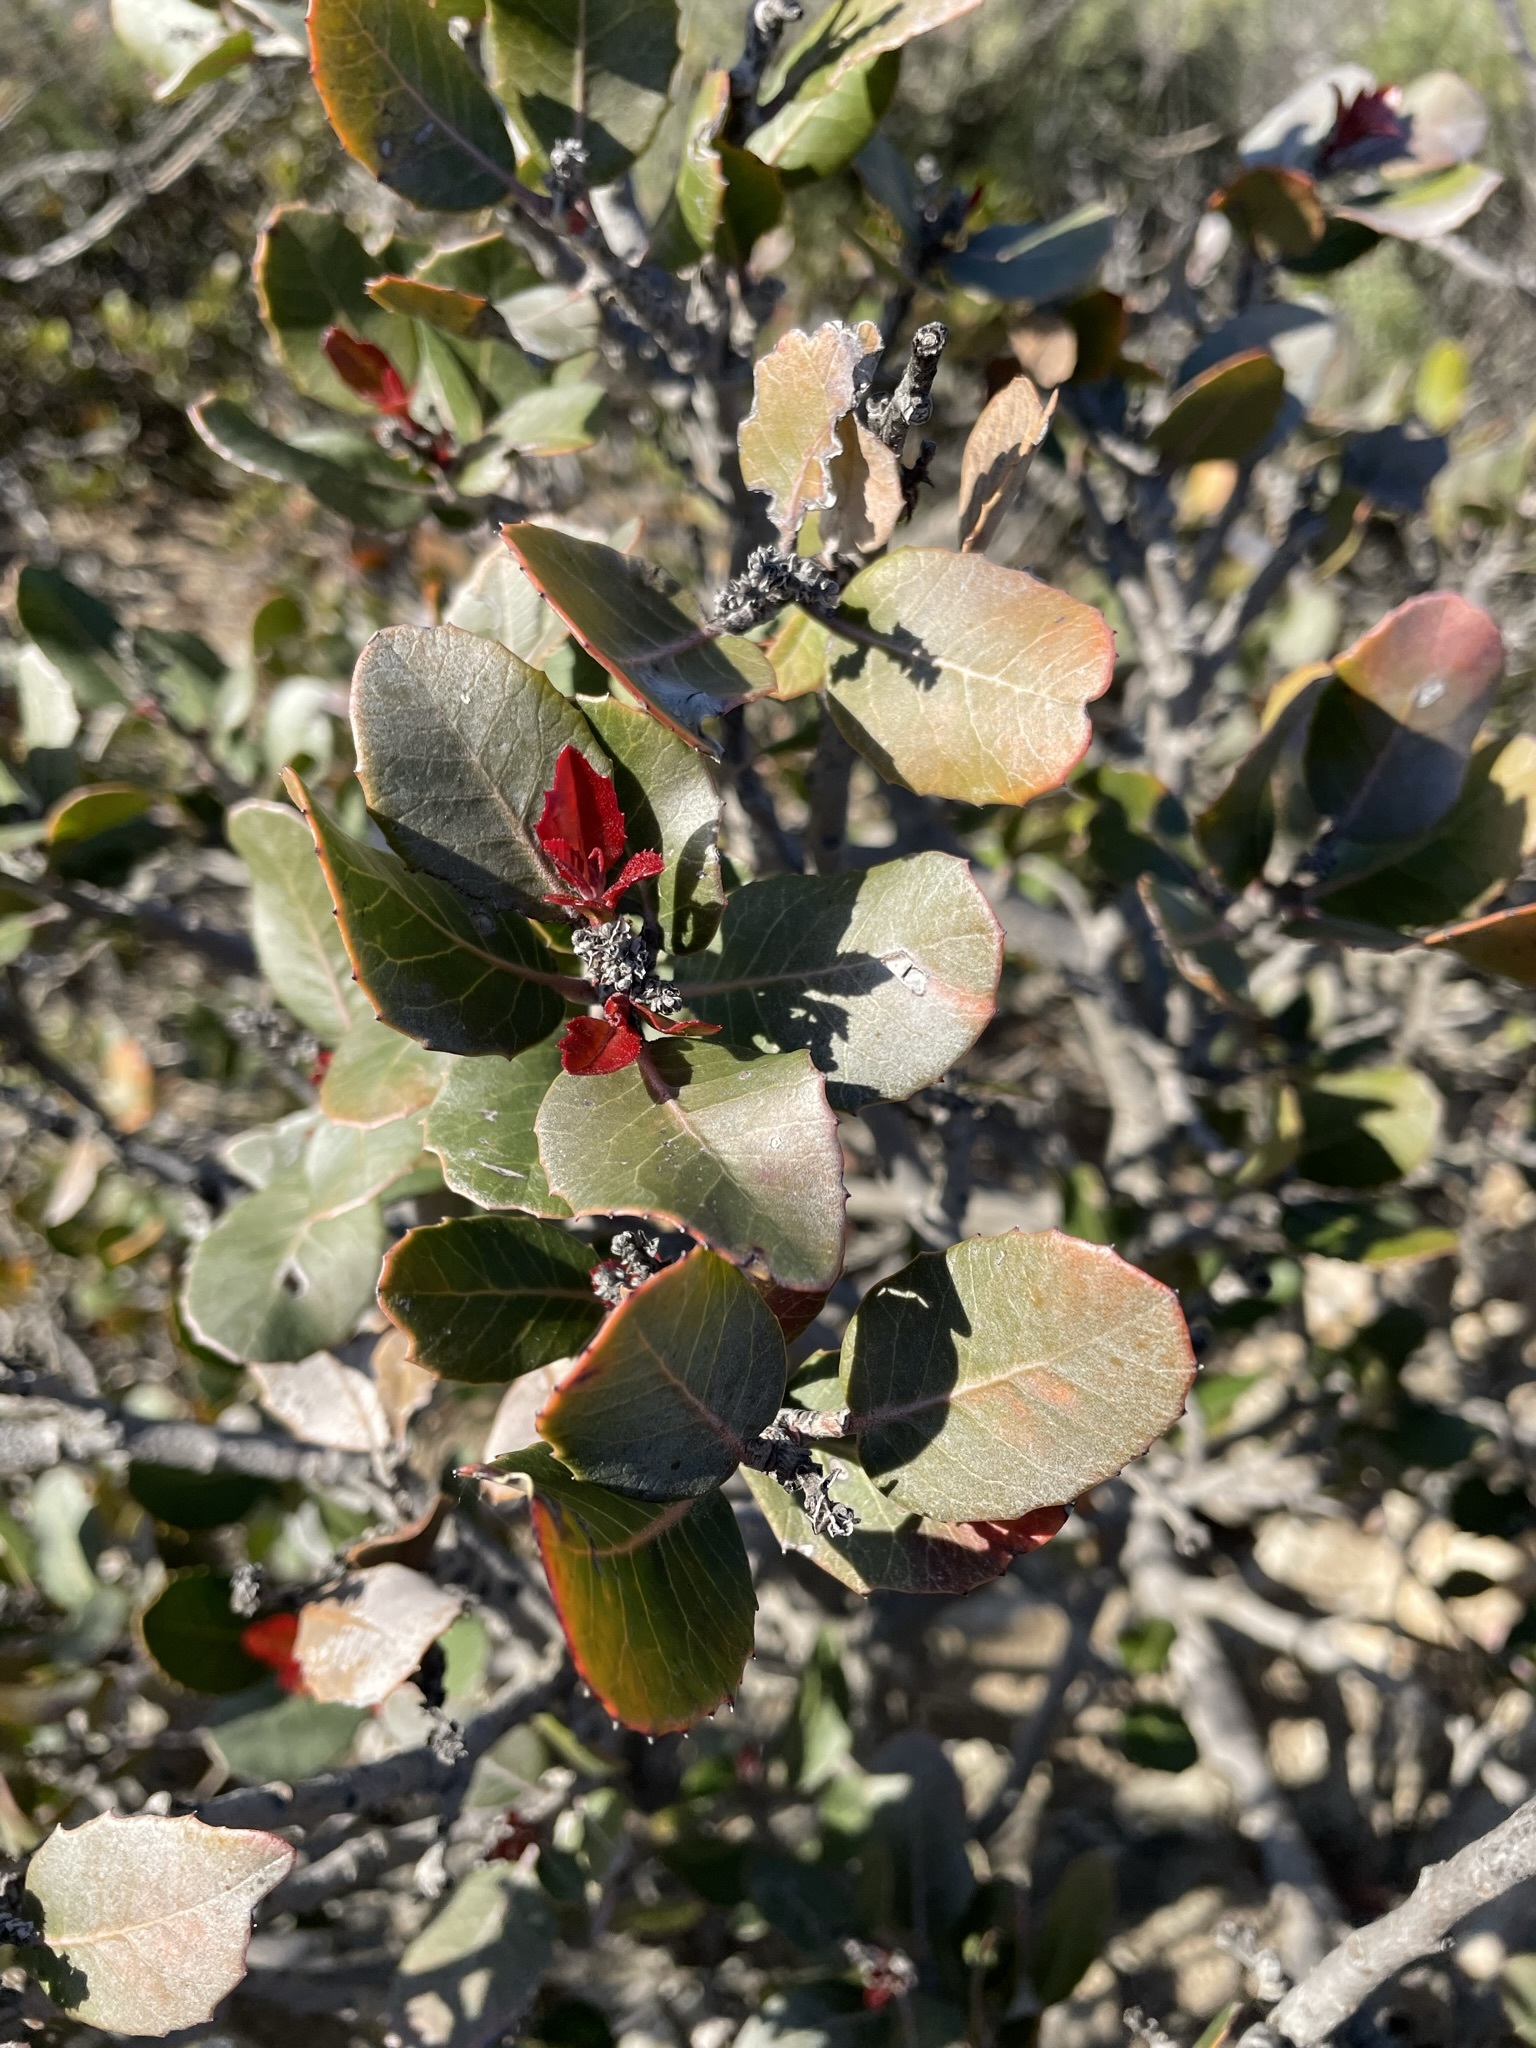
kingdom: Plantae
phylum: Tracheophyta
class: Magnoliopsida
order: Sapindales
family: Anacardiaceae
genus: Rhus
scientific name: Rhus integrifolia
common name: Lemonade sumac
